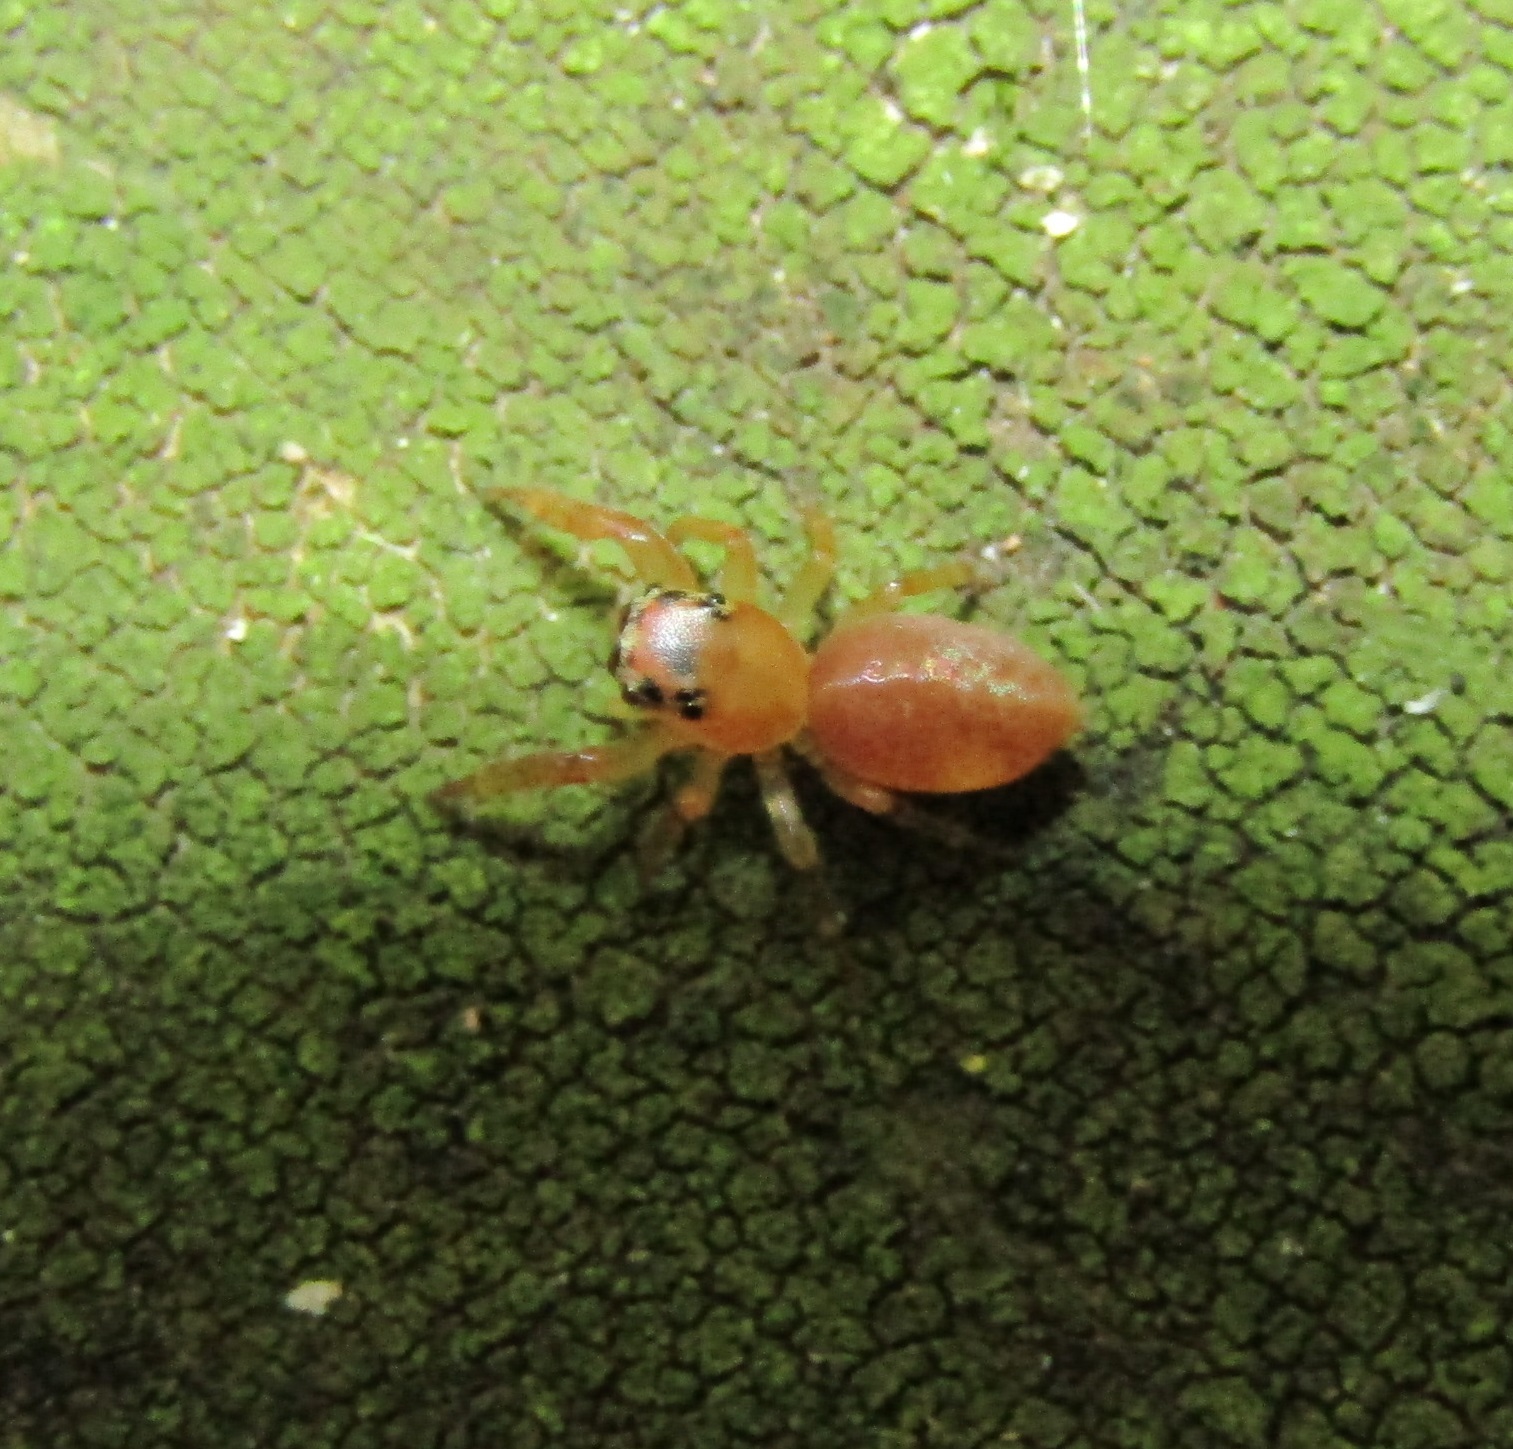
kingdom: Animalia
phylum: Arthropoda
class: Arachnida
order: Araneae
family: Salticidae
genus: Trite
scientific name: Trite mustilina
